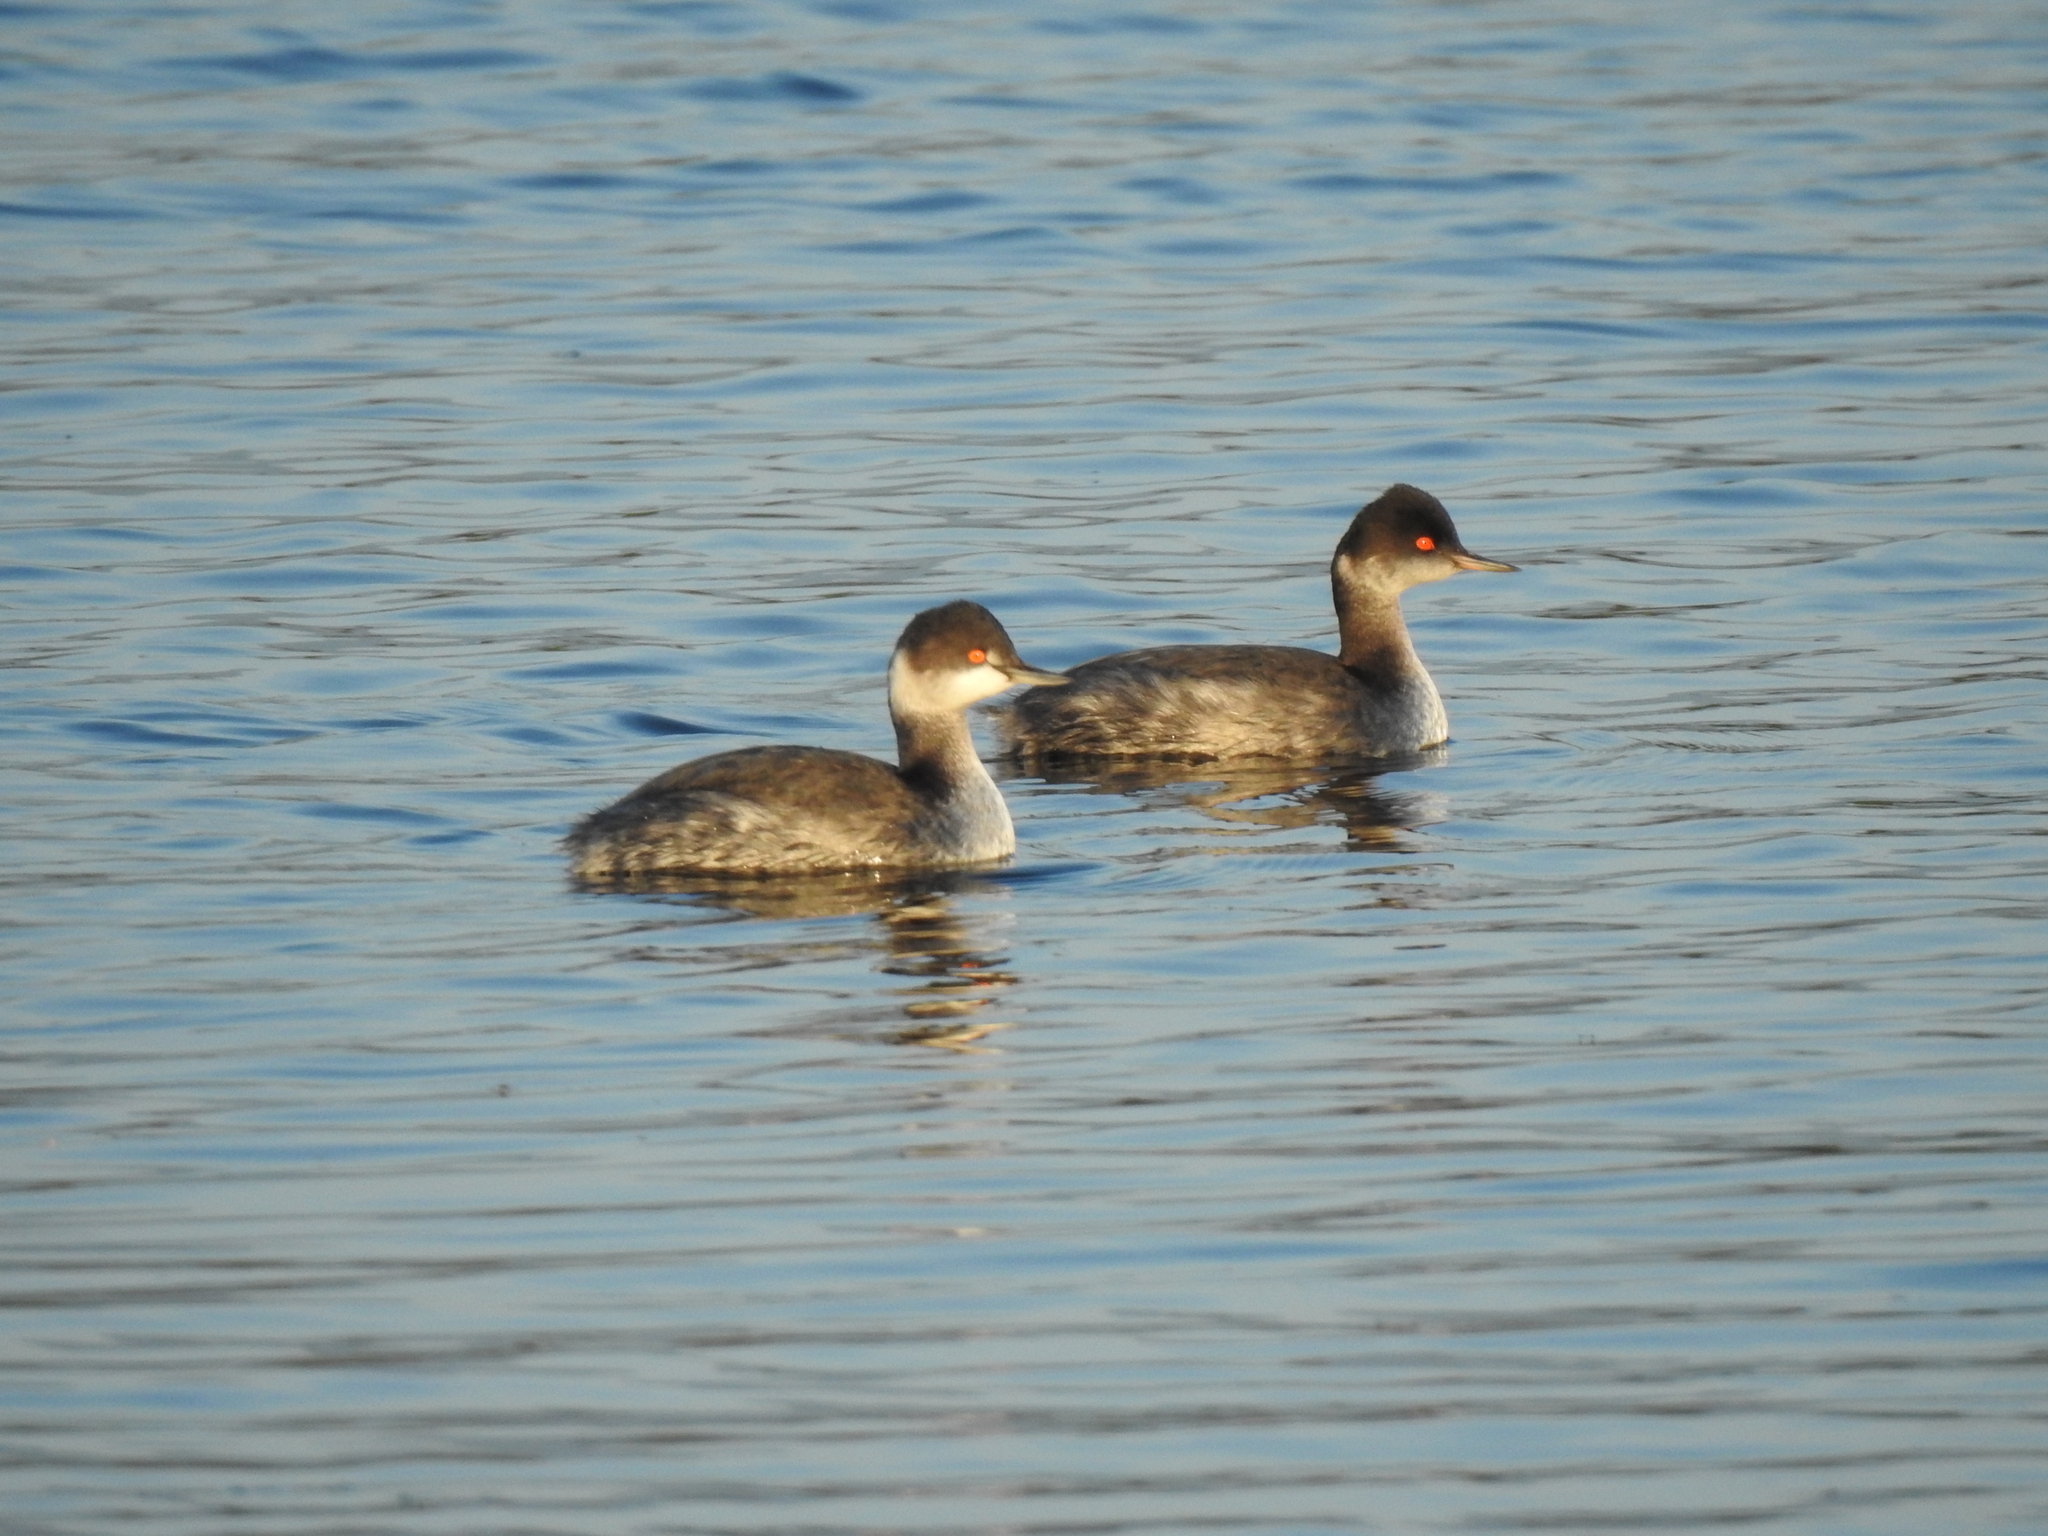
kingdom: Animalia
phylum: Chordata
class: Aves
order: Podicipediformes
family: Podicipedidae
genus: Podiceps
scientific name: Podiceps nigricollis
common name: Black-necked grebe
